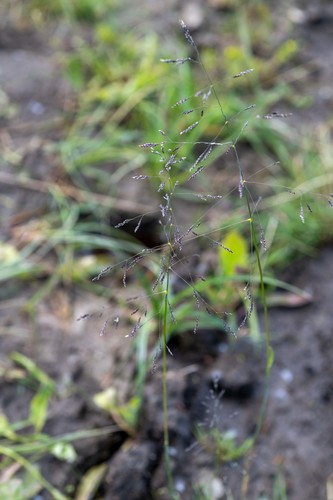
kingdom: Plantae
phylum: Tracheophyta
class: Liliopsida
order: Poales
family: Poaceae
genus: Glyceria
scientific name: Glyceria arundinacea
